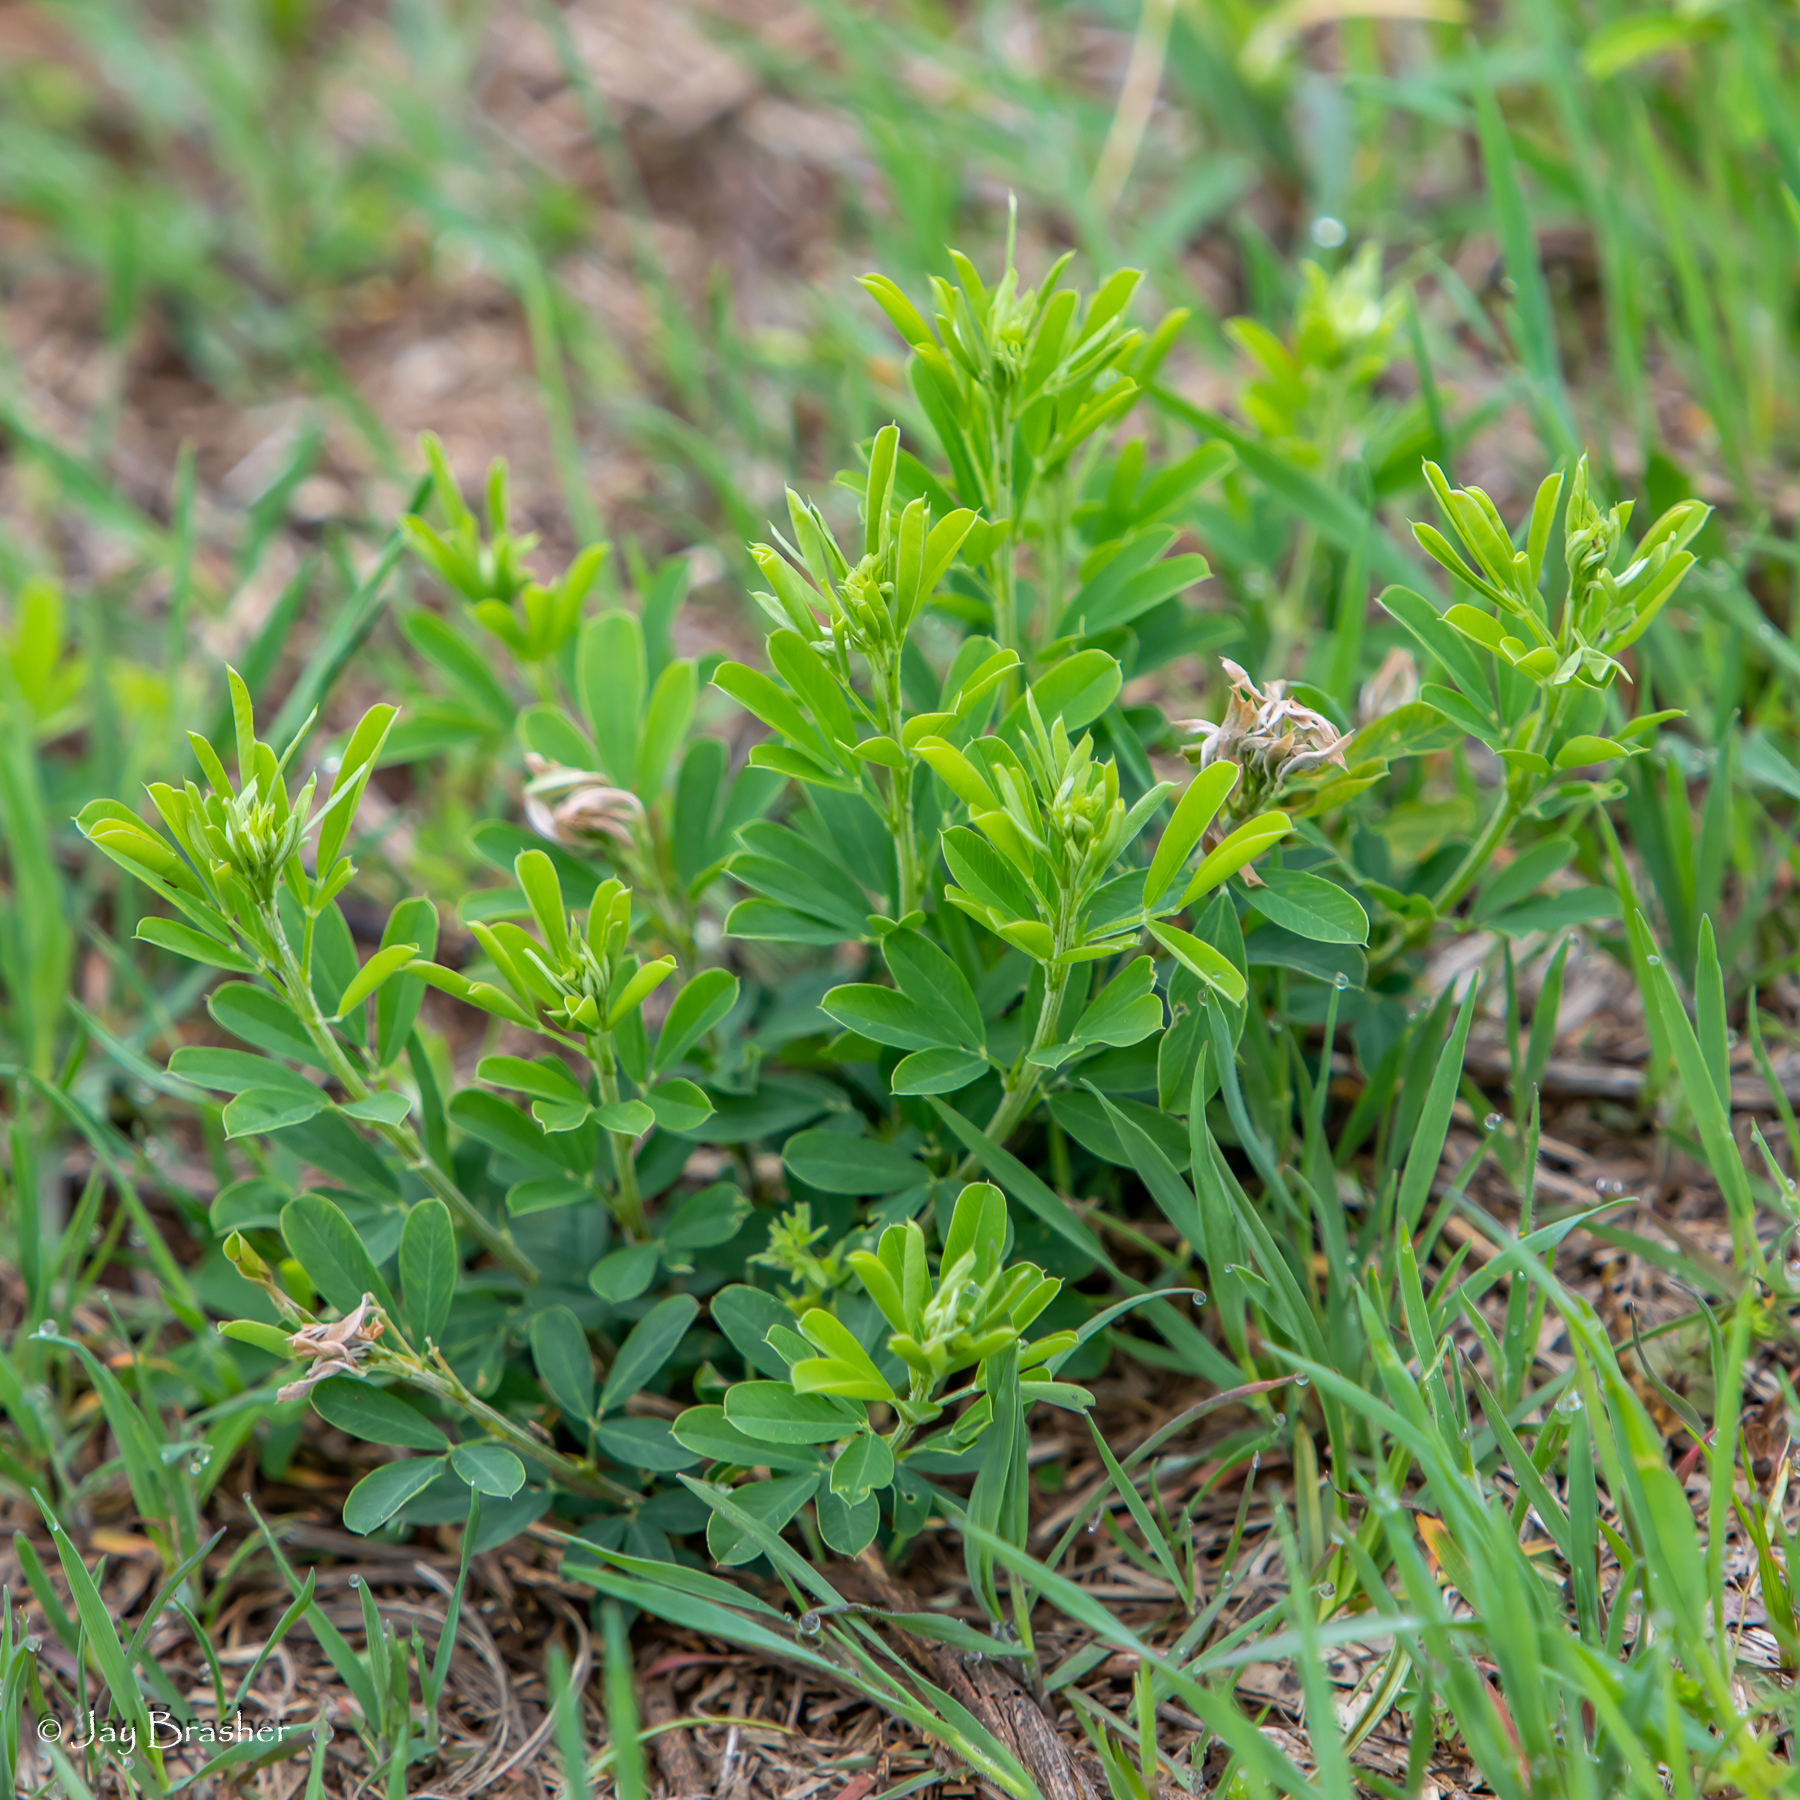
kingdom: Plantae
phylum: Tracheophyta
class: Magnoliopsida
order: Fabales
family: Fabaceae
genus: Lespedeza
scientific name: Lespedeza cuneata
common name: Chinese bush-clover
